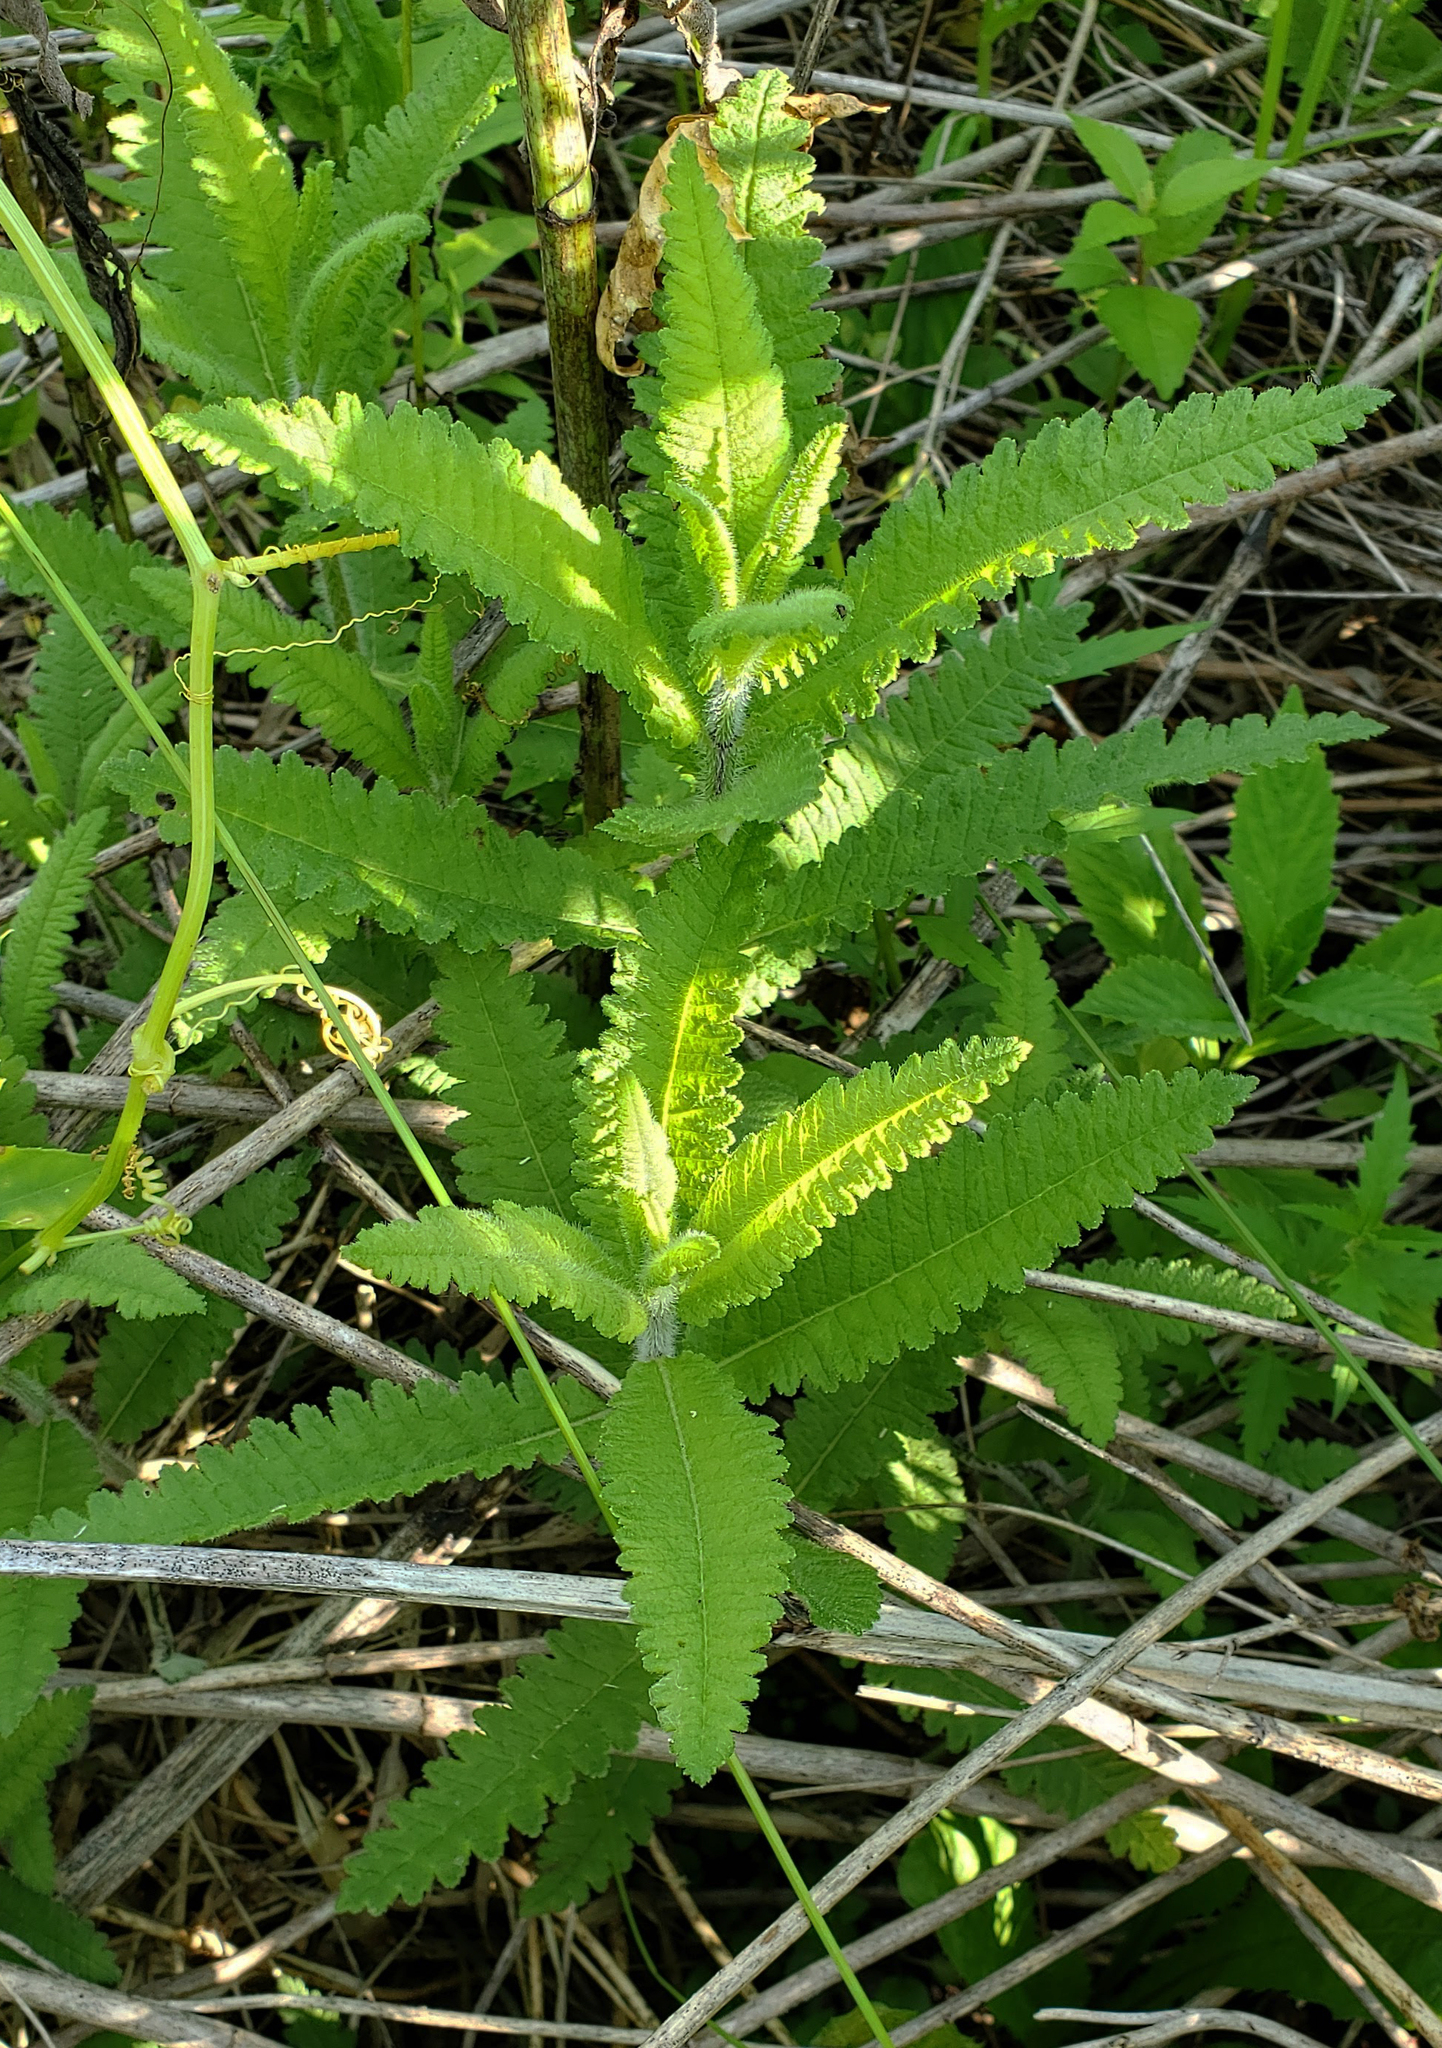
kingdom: Plantae
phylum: Tracheophyta
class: Magnoliopsida
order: Lamiales
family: Orobanchaceae
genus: Pedicularis
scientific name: Pedicularis lanceolata
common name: Swamp lousewort
